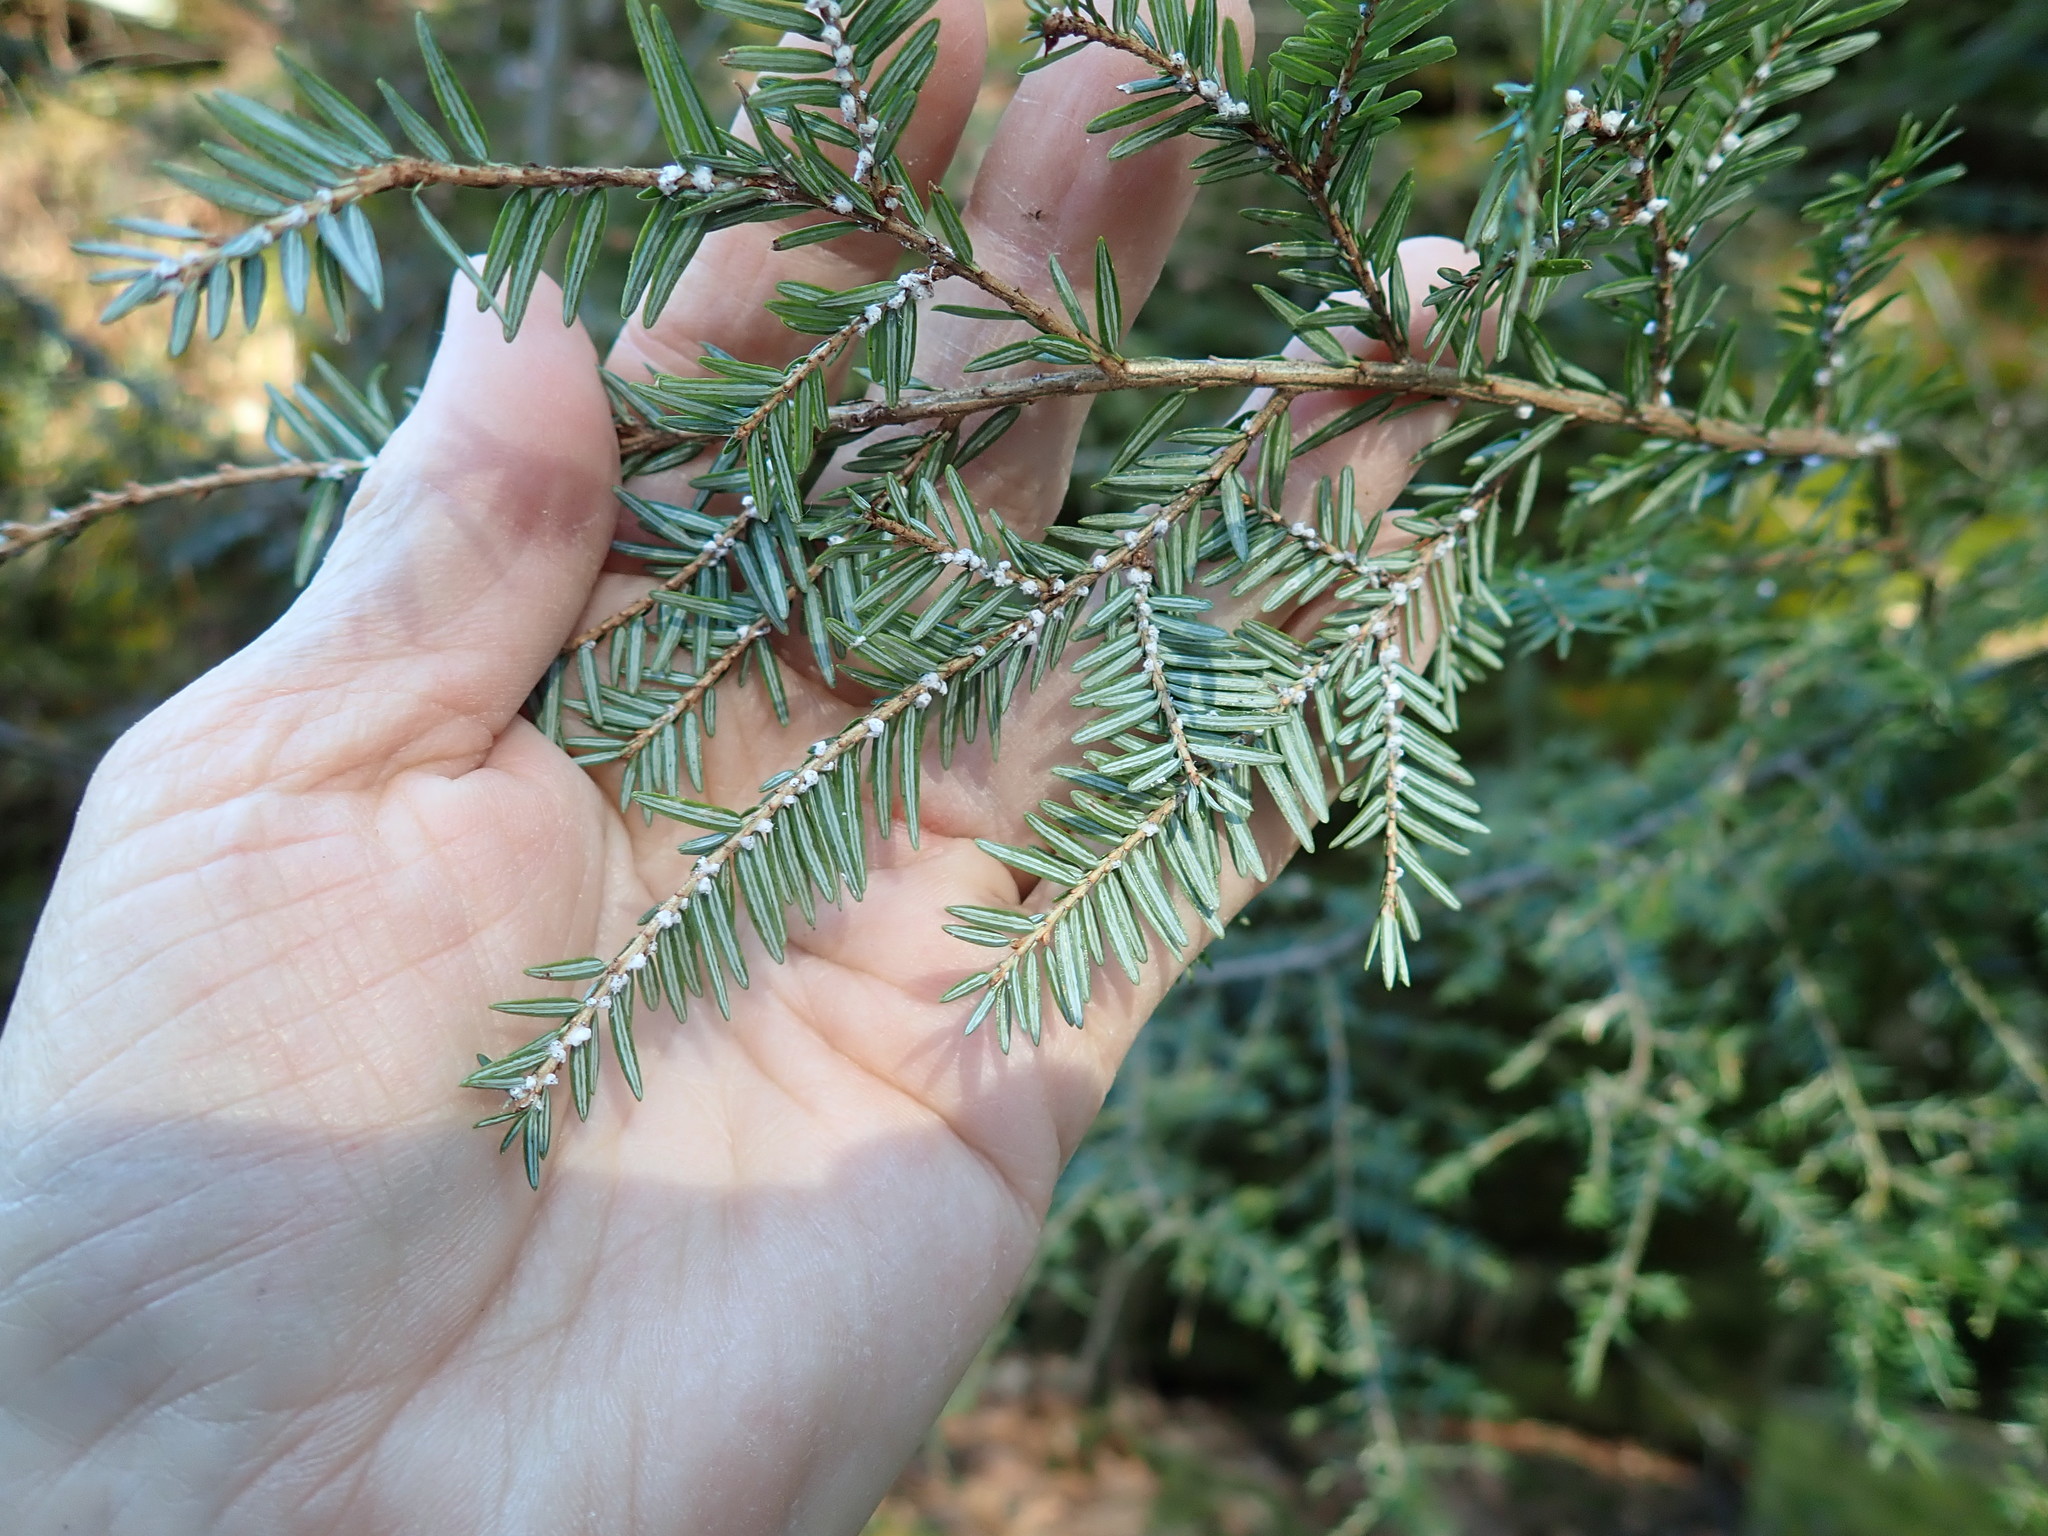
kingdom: Animalia
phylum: Arthropoda
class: Insecta
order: Hemiptera
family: Adelgidae
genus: Adelges
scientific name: Adelges tsugae
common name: Hemlock woolly adelgid
